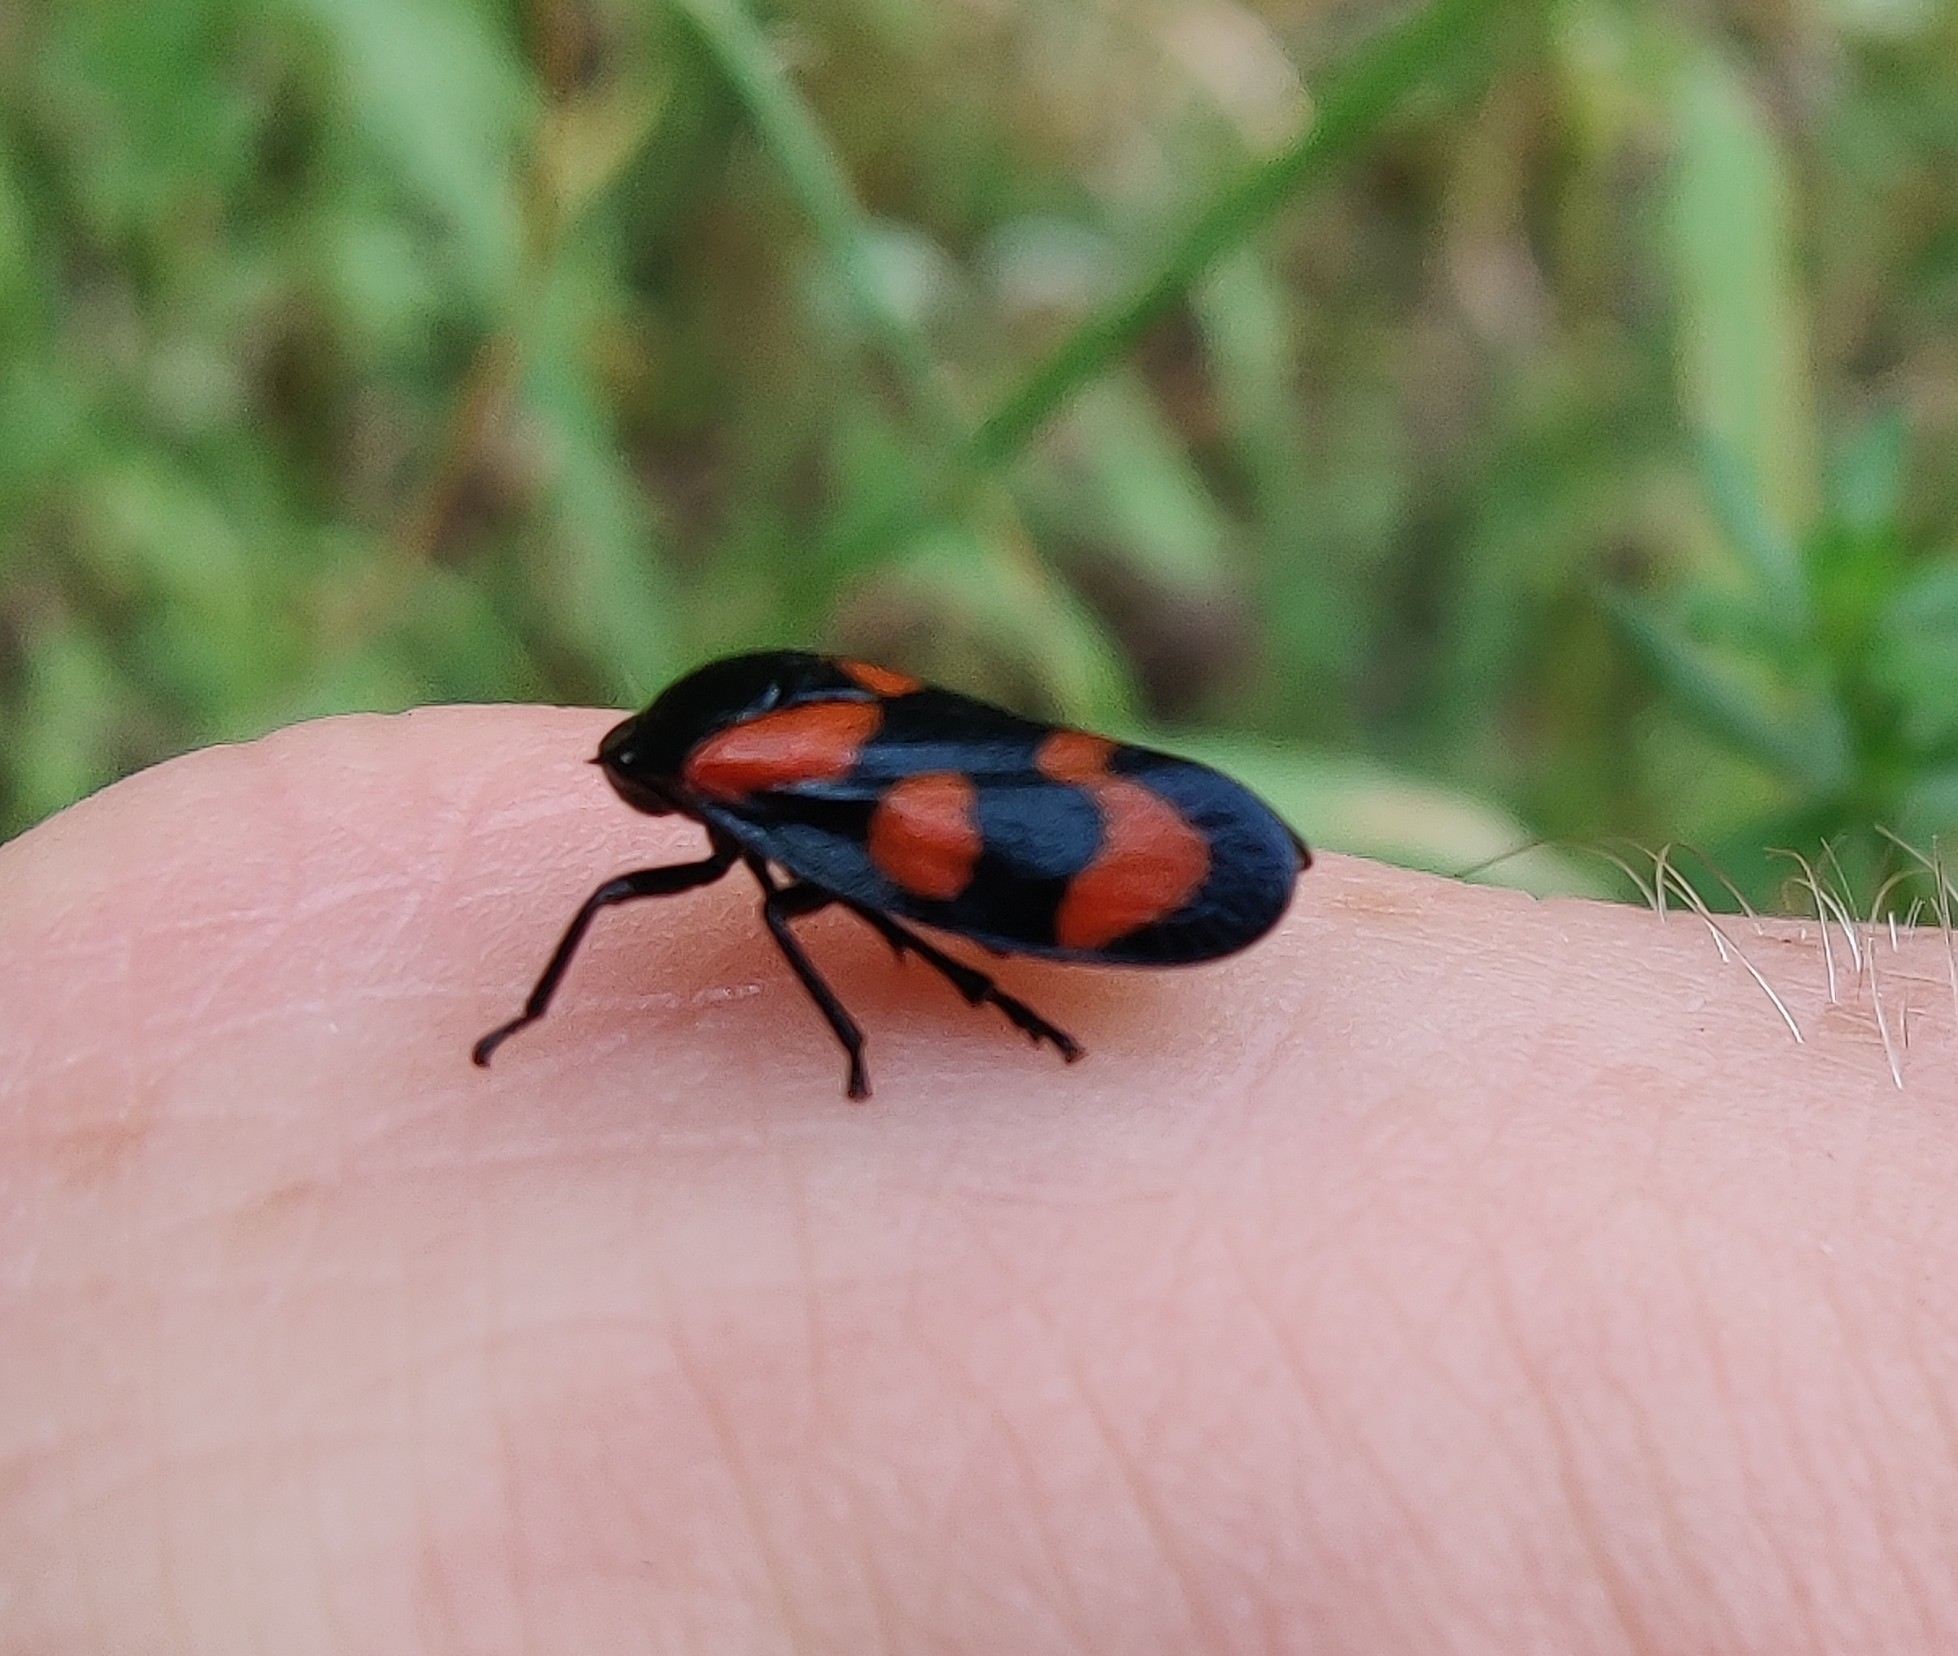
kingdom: Animalia
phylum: Arthropoda
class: Insecta
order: Hemiptera
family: Cercopidae
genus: Cercopis
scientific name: Cercopis vulnerata
